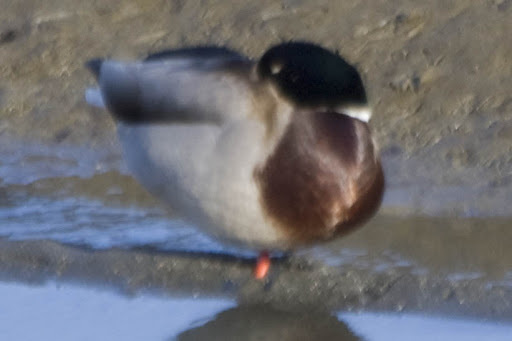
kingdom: Animalia
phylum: Chordata
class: Aves
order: Anseriformes
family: Anatidae
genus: Anas
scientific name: Anas platyrhynchos
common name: Mallard
